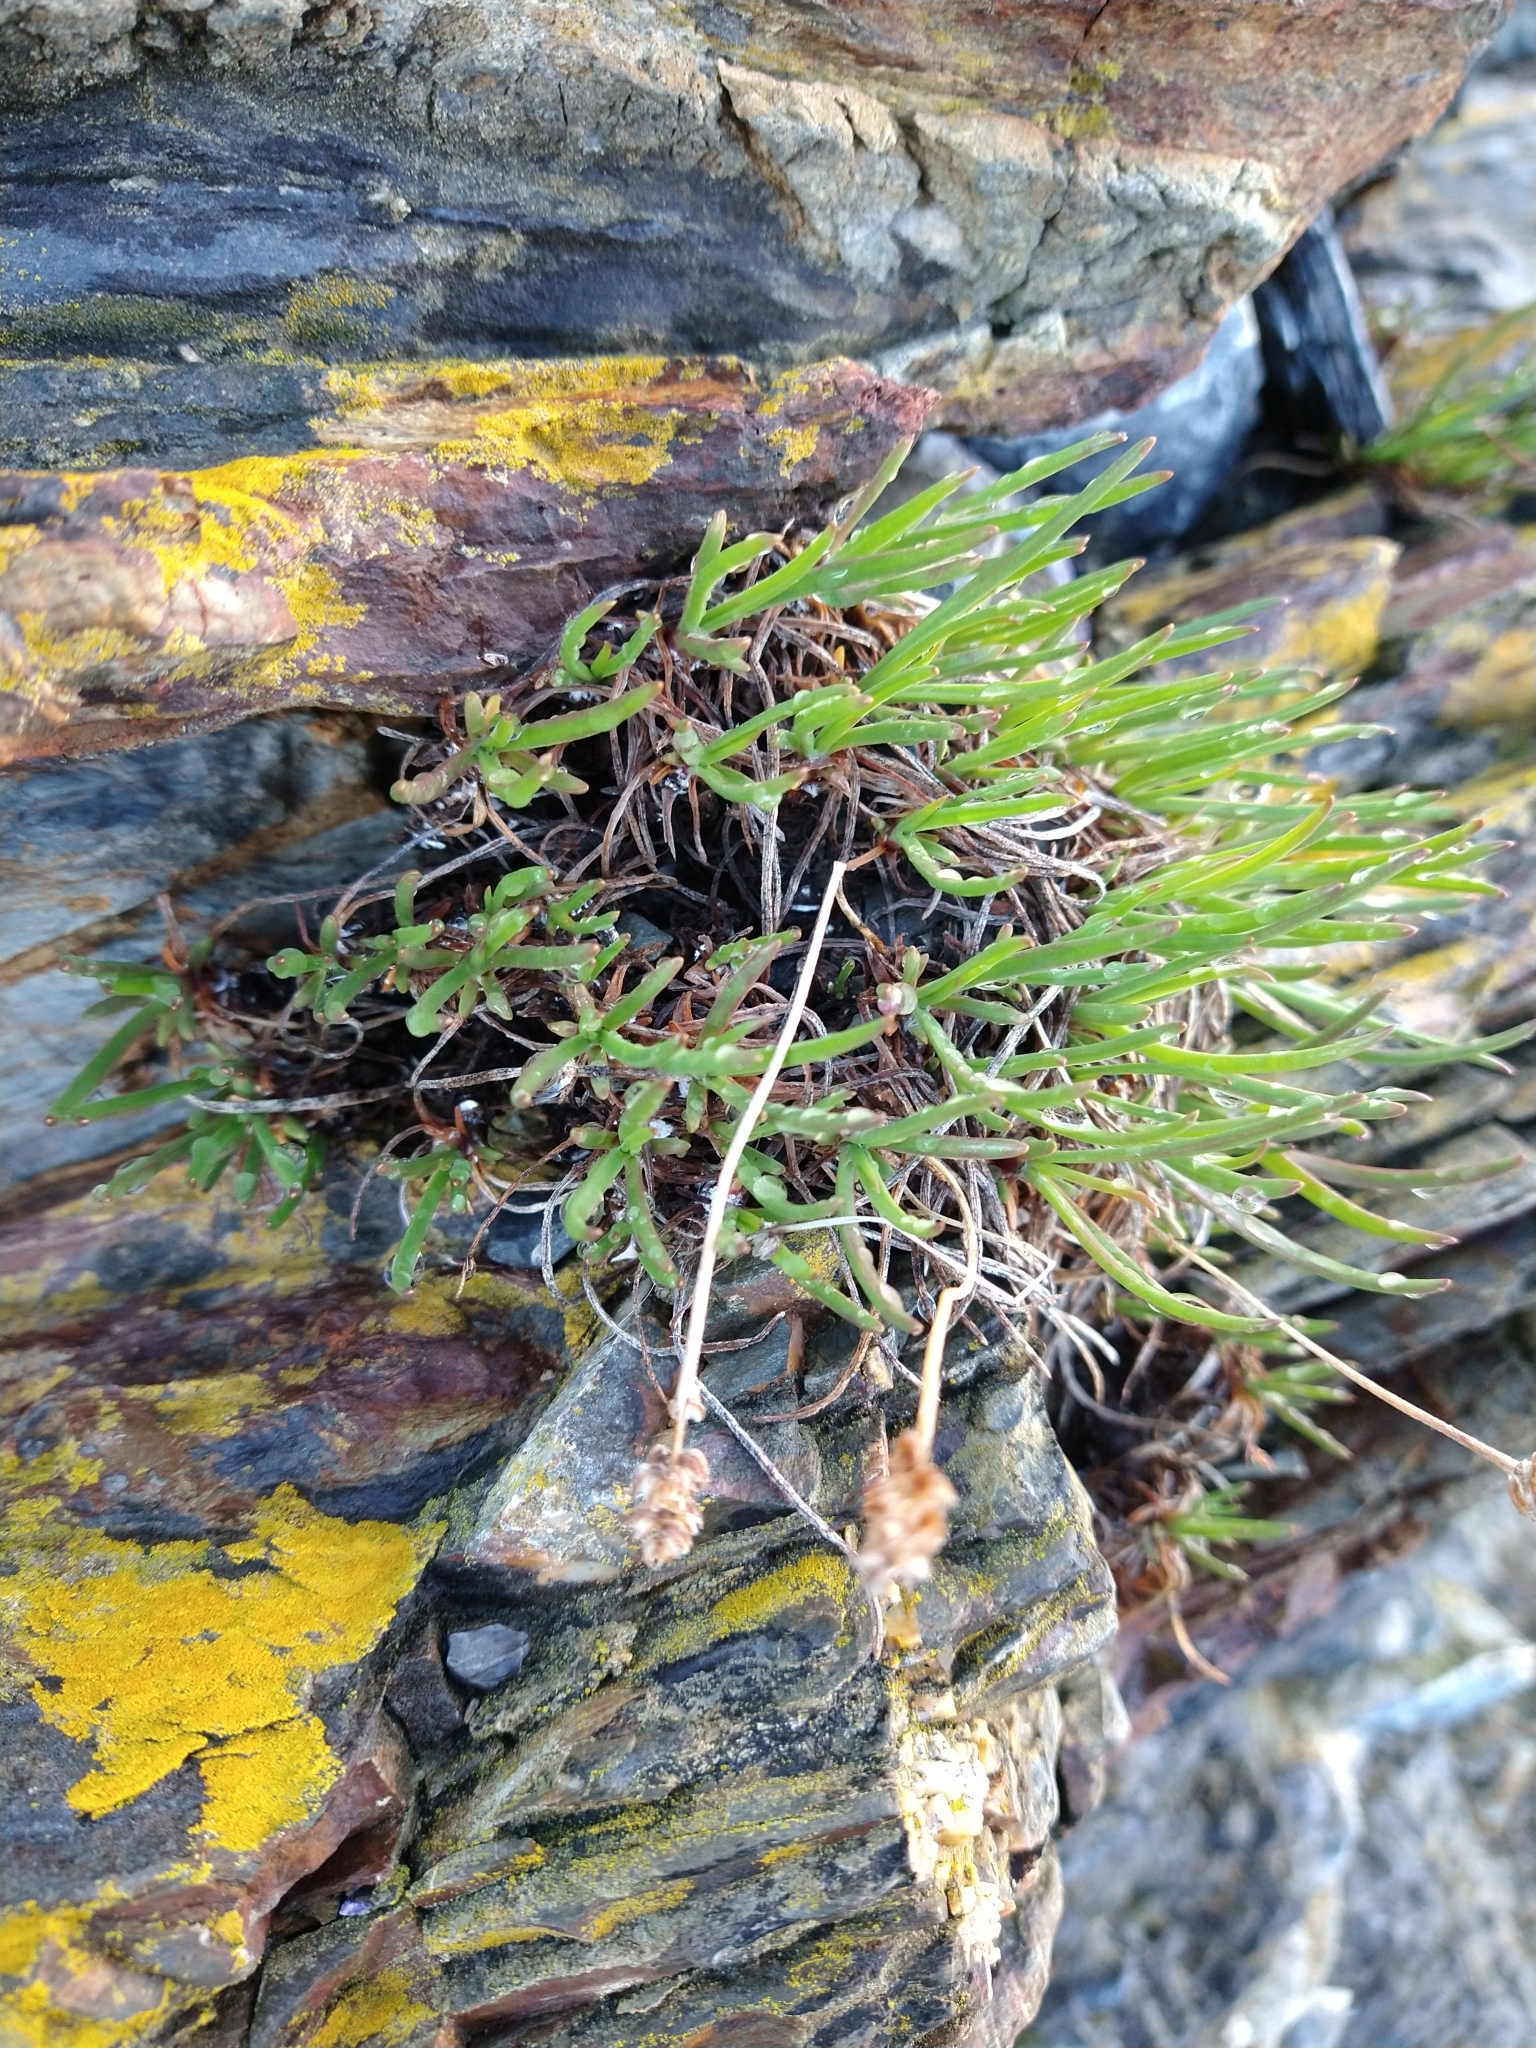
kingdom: Plantae
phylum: Tracheophyta
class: Magnoliopsida
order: Lamiales
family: Plantaginaceae
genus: Plantago
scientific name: Plantago maritima
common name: Sea plantain
